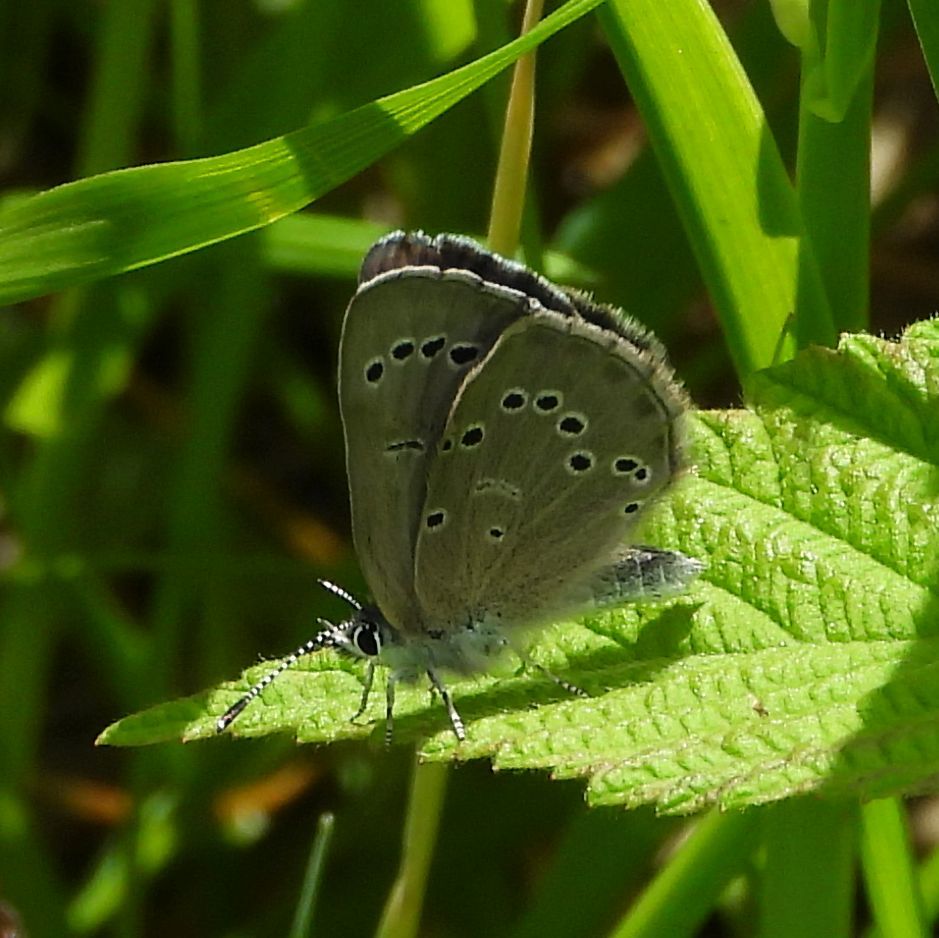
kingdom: Animalia
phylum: Arthropoda
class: Insecta
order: Lepidoptera
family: Lycaenidae
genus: Glaucopsyche
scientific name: Glaucopsyche lygdamus
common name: Silvery blue
